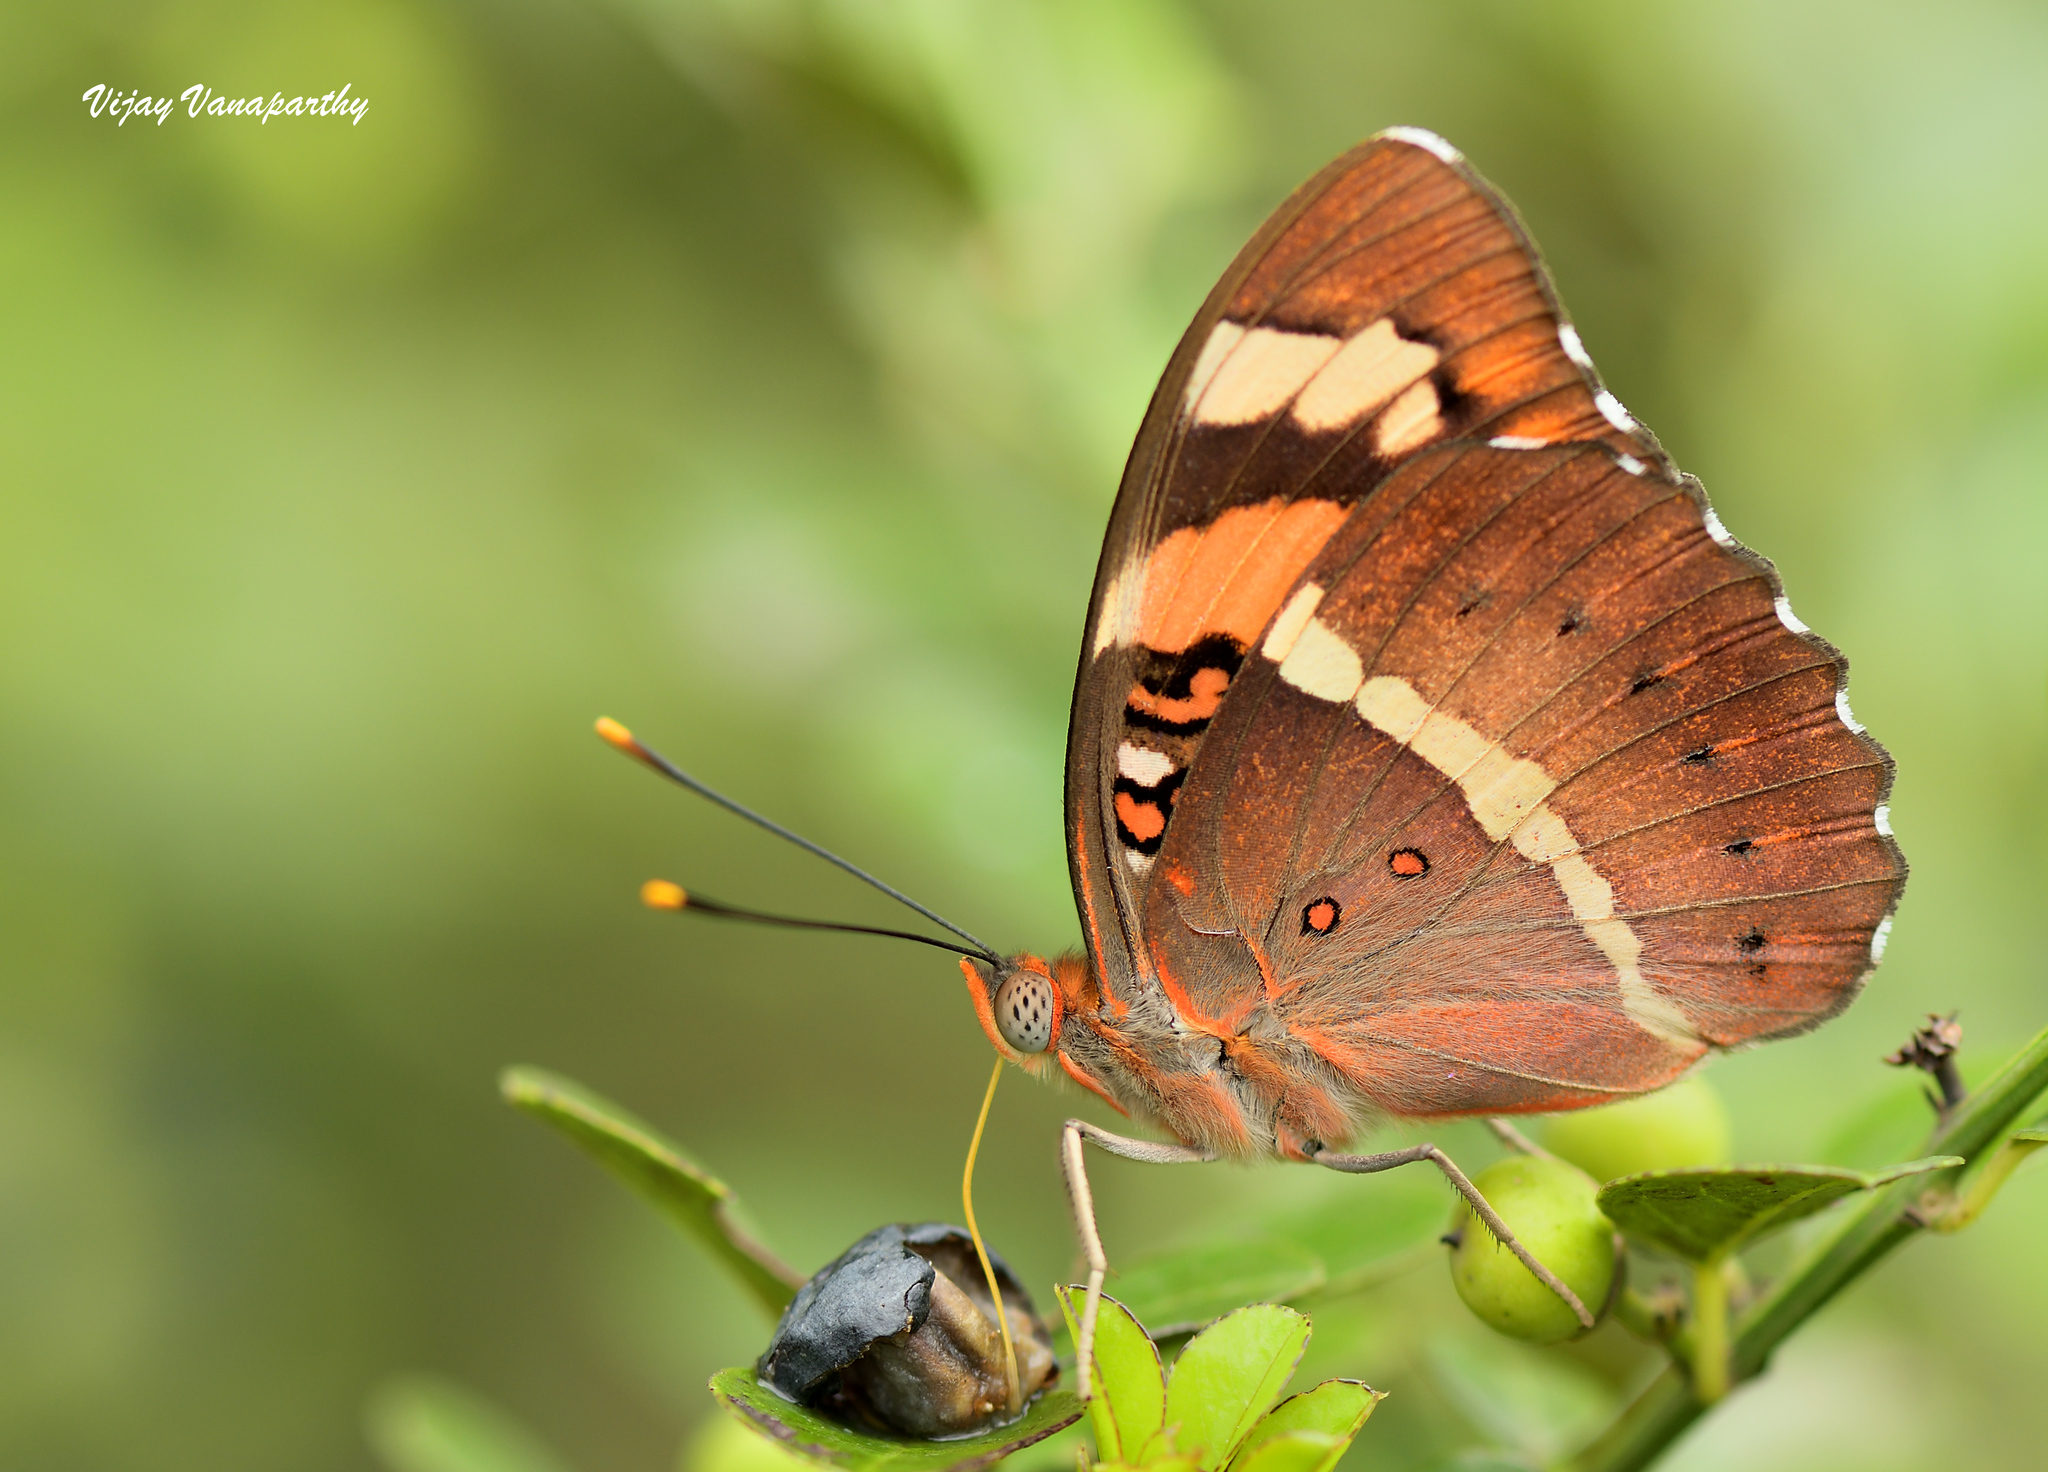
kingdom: Animalia
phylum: Arthropoda
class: Insecta
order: Lepidoptera
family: Nymphalidae
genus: Euthalia
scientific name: Euthalia nais
